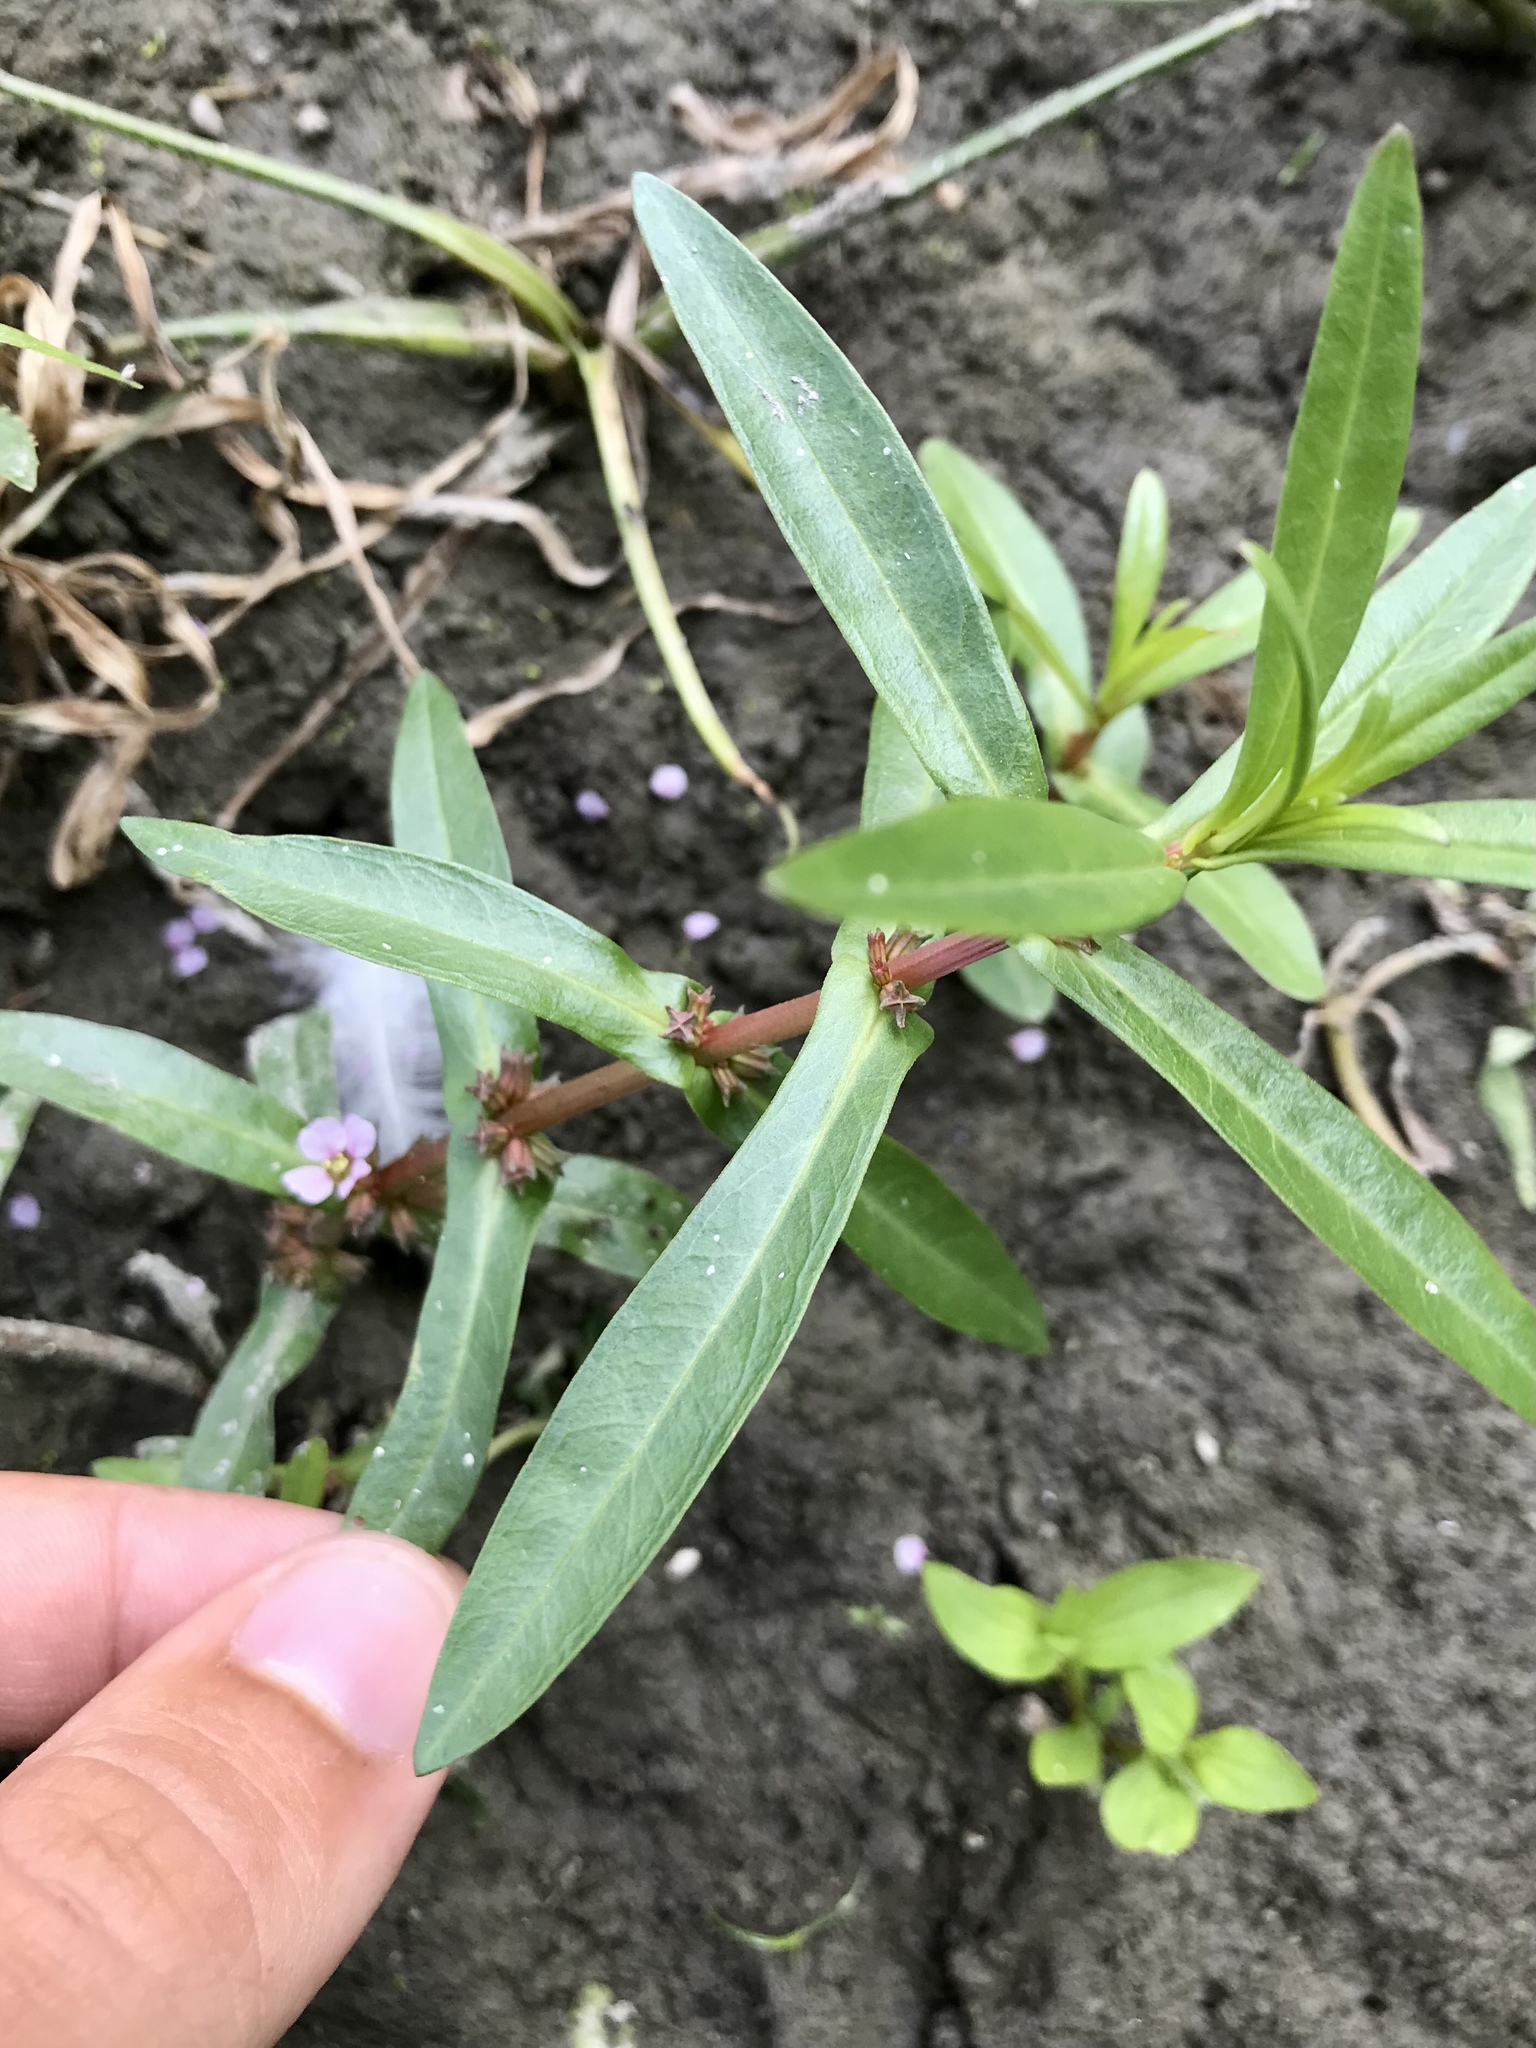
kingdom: Plantae
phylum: Tracheophyta
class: Magnoliopsida
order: Myrtales
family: Lythraceae
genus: Ammannia
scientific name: Ammannia robusta
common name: Grand ammannia
